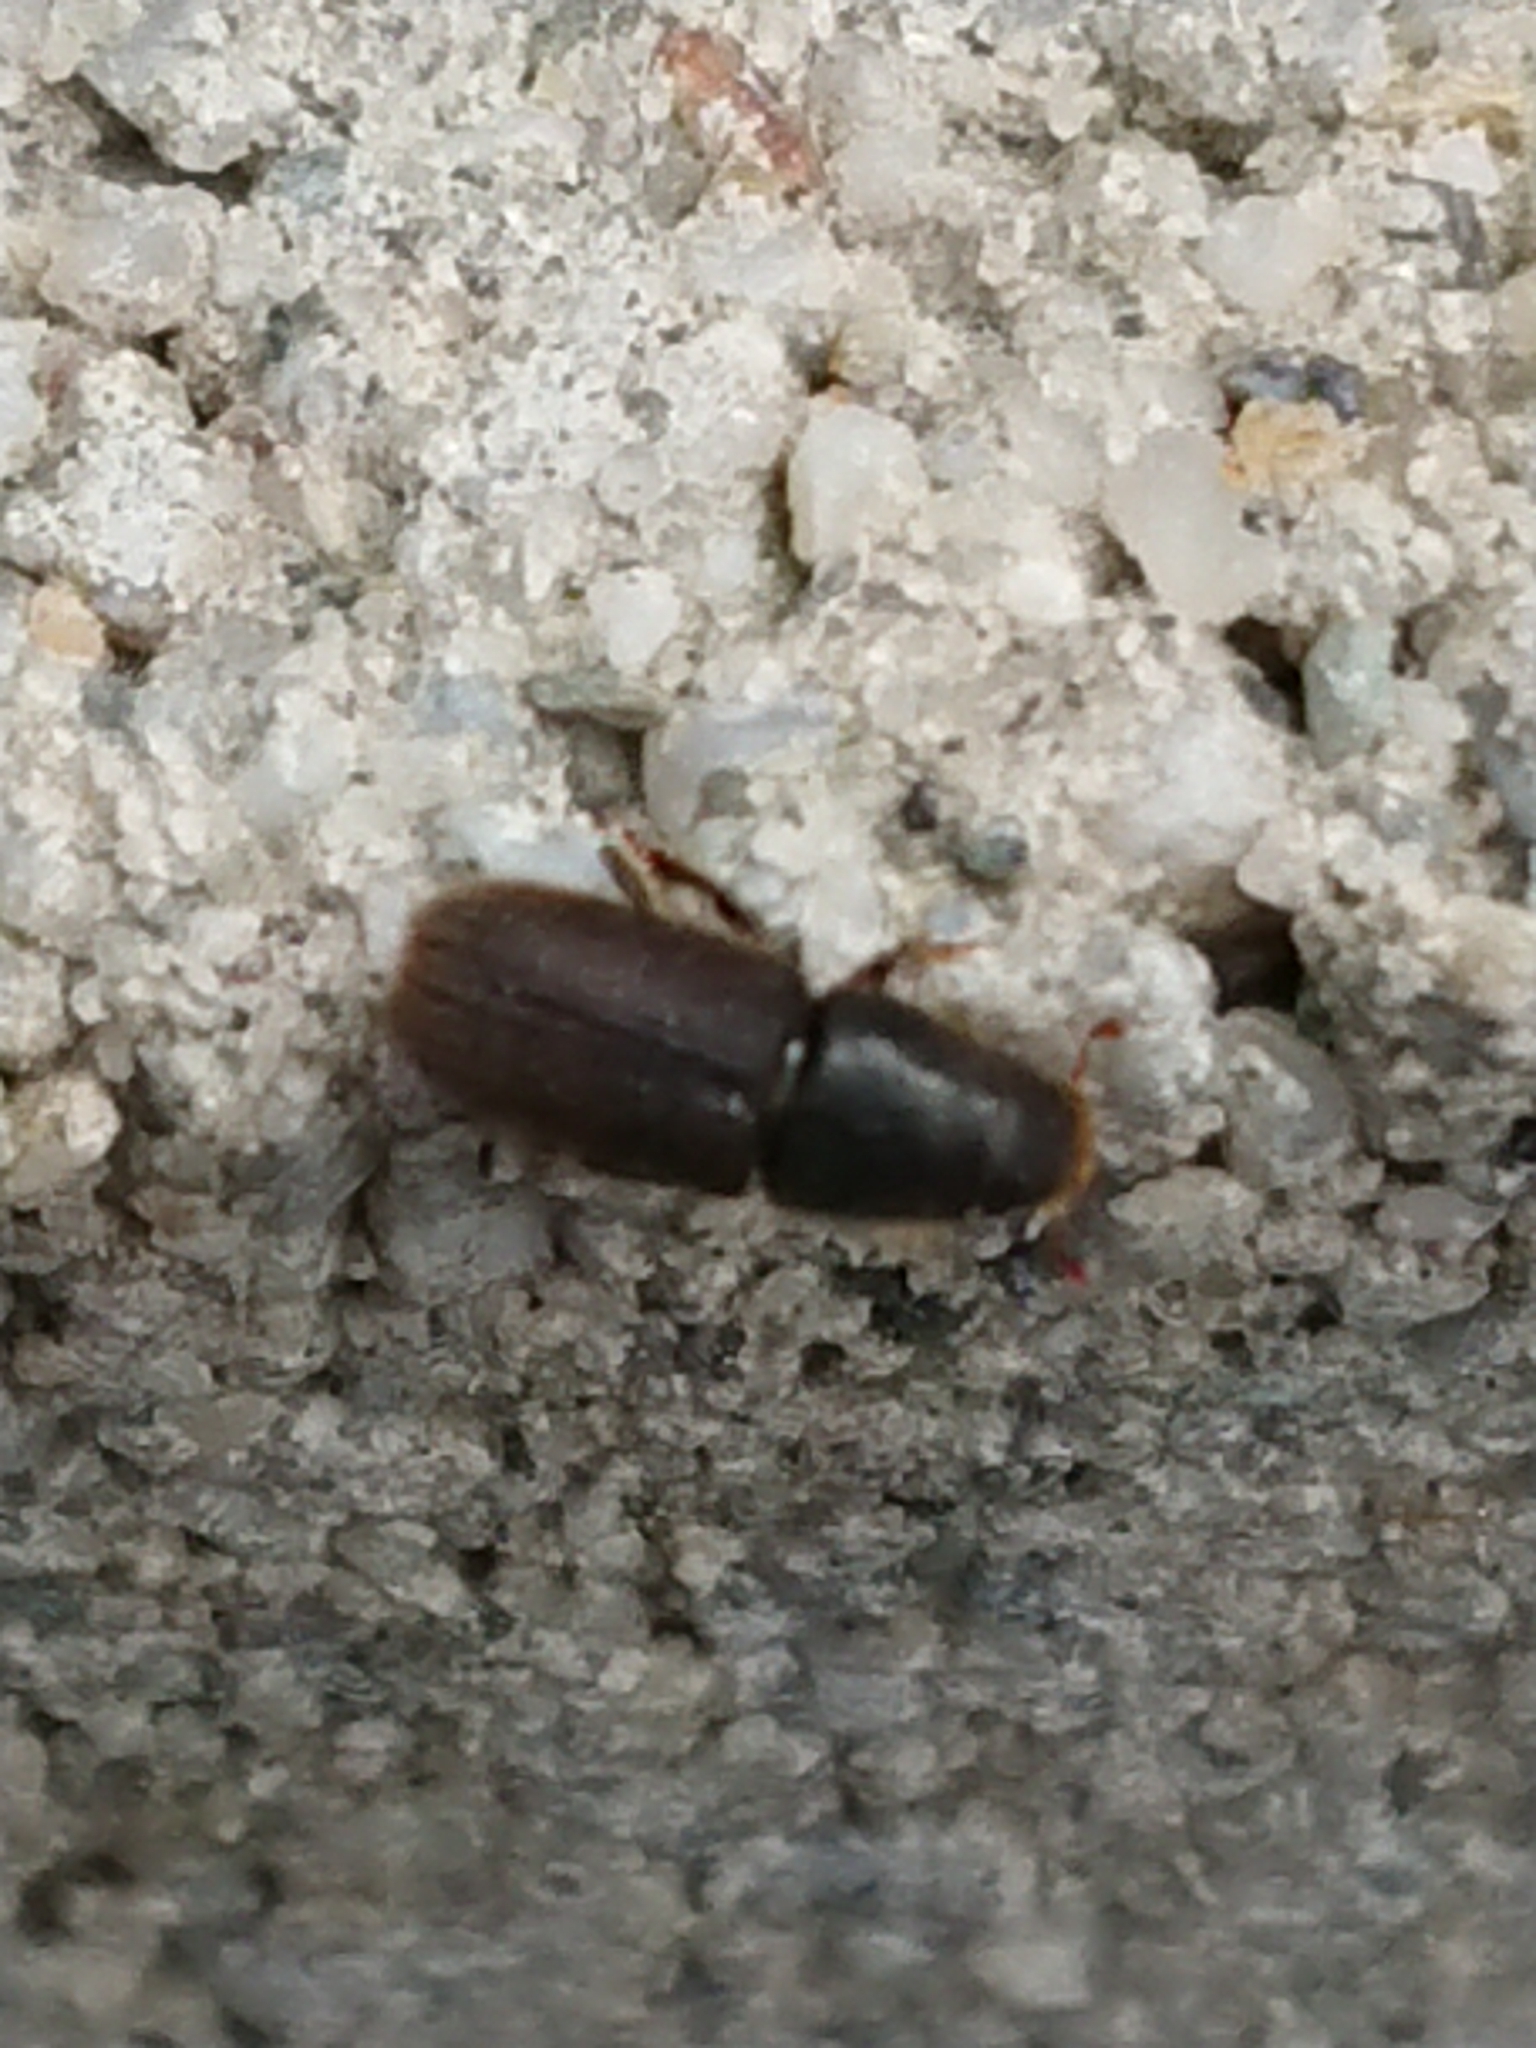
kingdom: Animalia
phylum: Arthropoda
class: Insecta
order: Coleoptera
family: Curculionidae
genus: Hylurgus
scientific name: Hylurgus ligniperda
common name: Goldenhaired bark beetle
